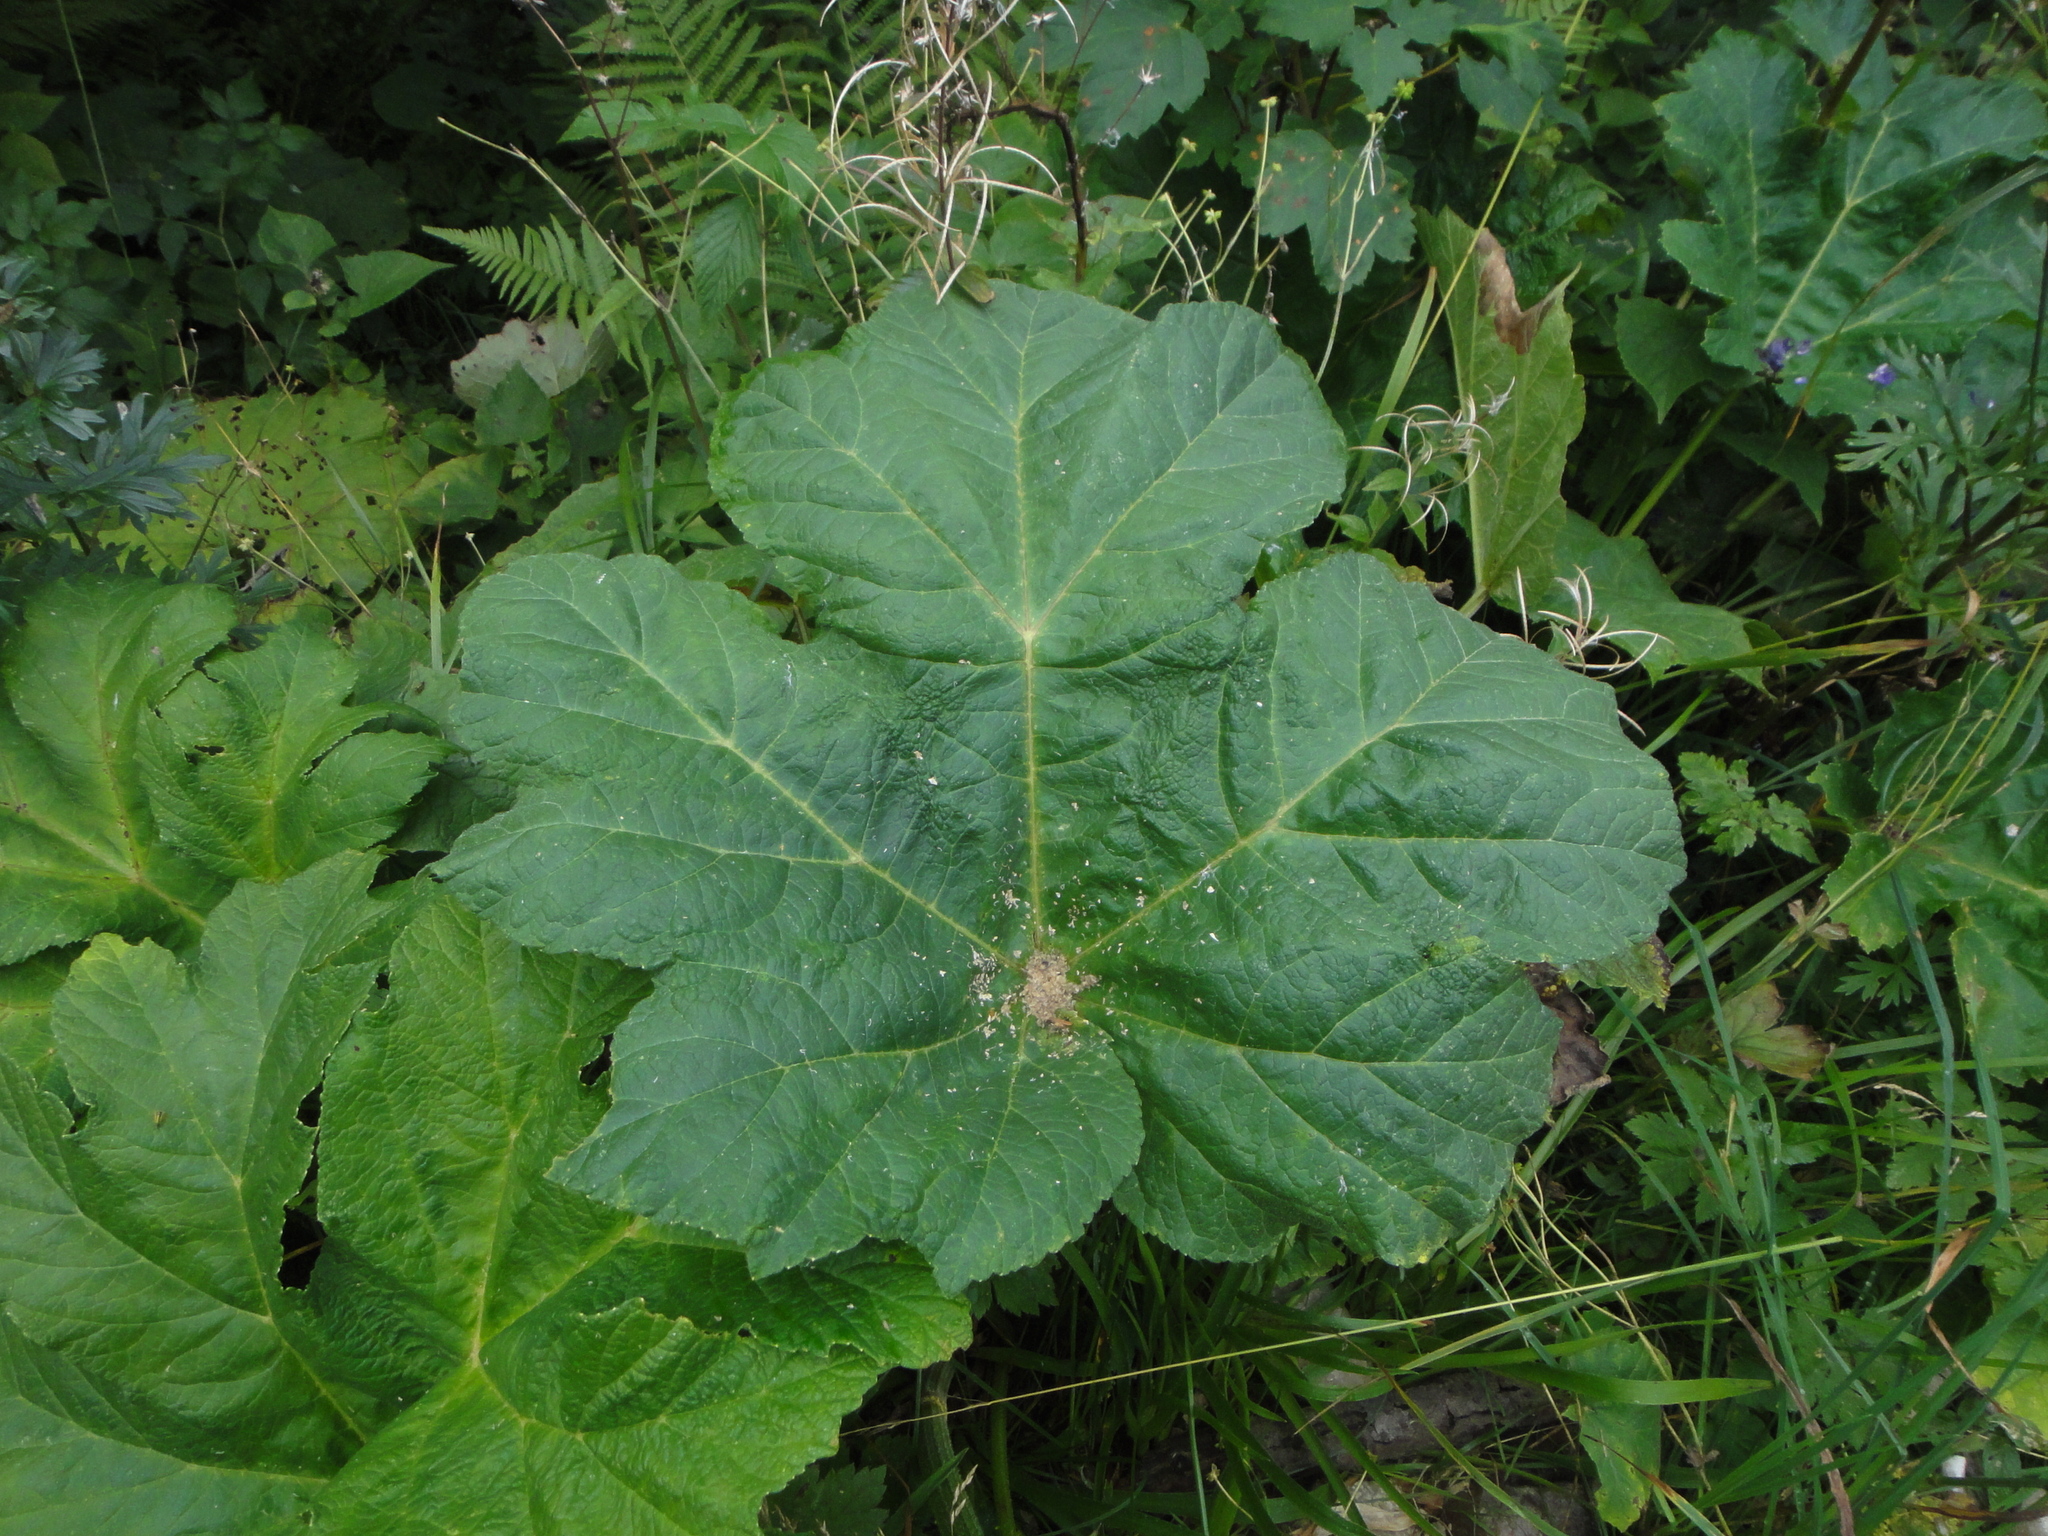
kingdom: Plantae
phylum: Tracheophyta
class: Magnoliopsida
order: Apiales
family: Apiaceae
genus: Heracleum
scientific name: Heracleum sphondylium
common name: Hogweed
